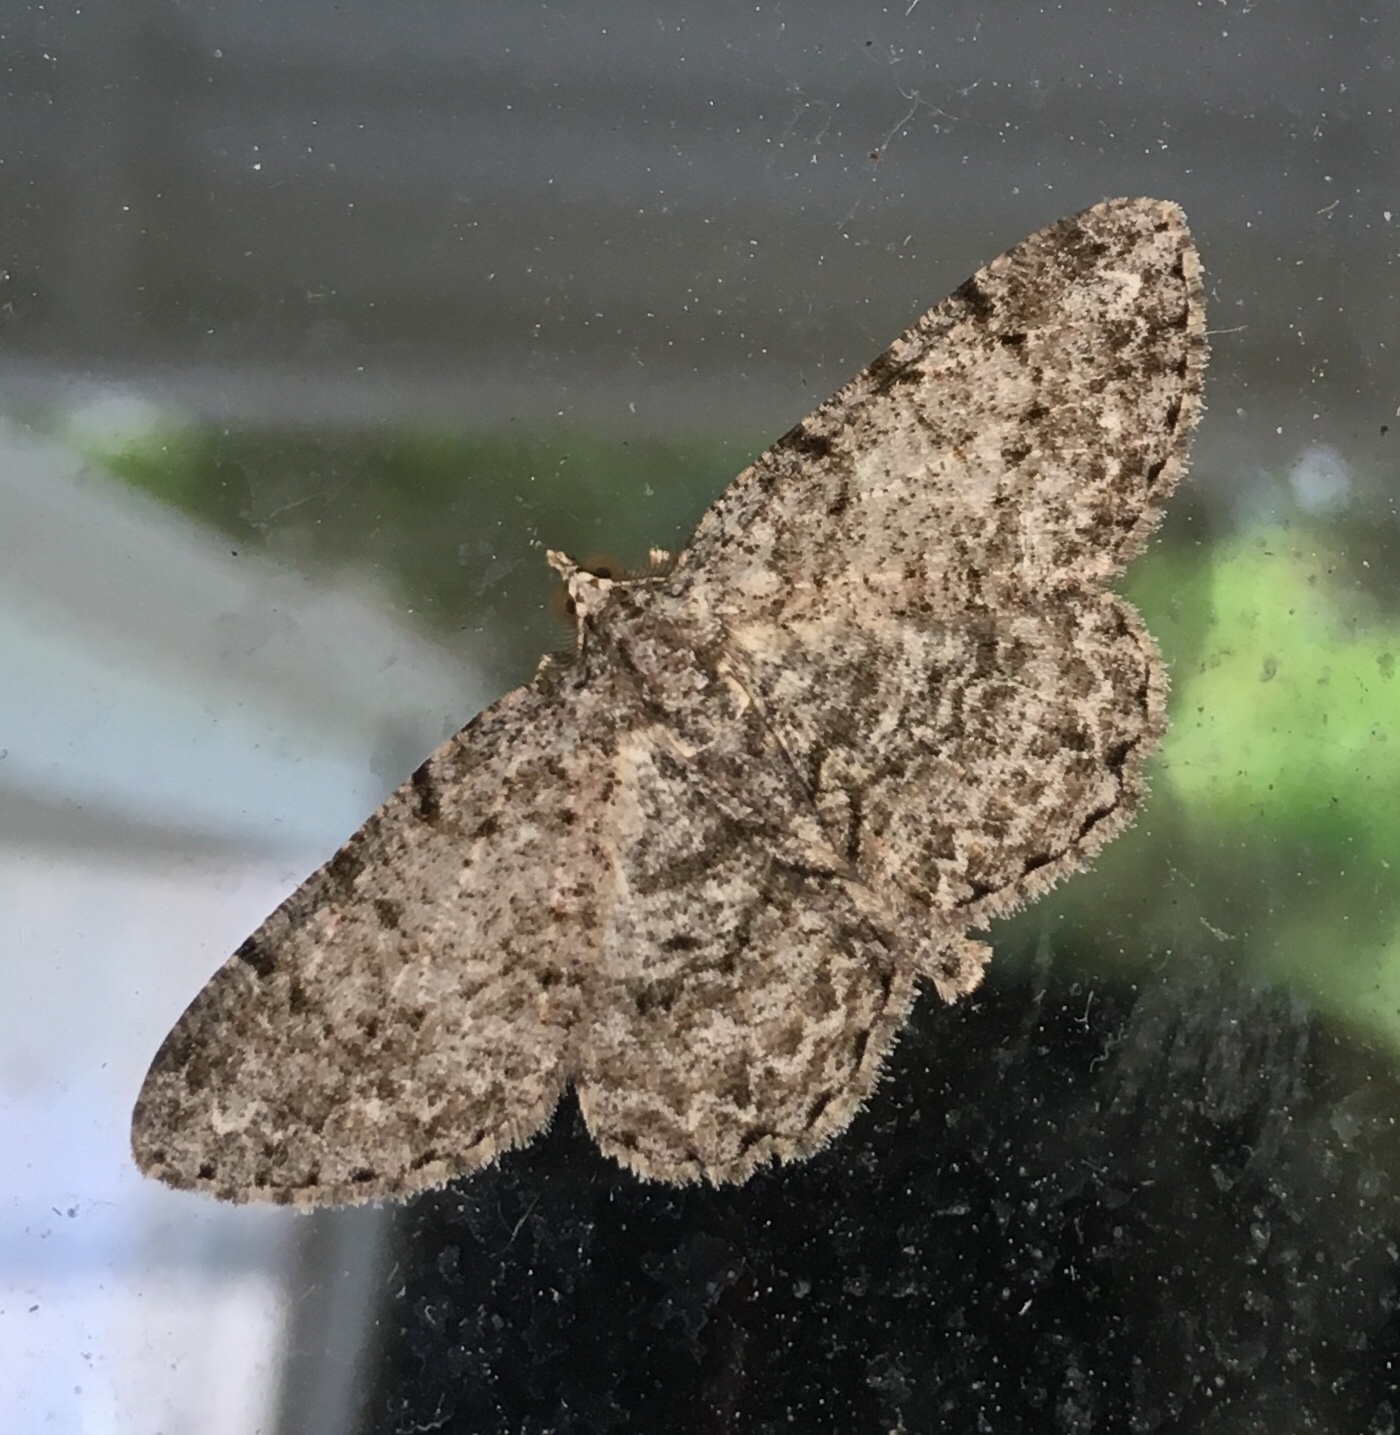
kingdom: Animalia
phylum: Arthropoda
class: Insecta
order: Lepidoptera
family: Geometridae
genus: Protoboarmia
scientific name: Protoboarmia porcelaria
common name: Porcelain gray
